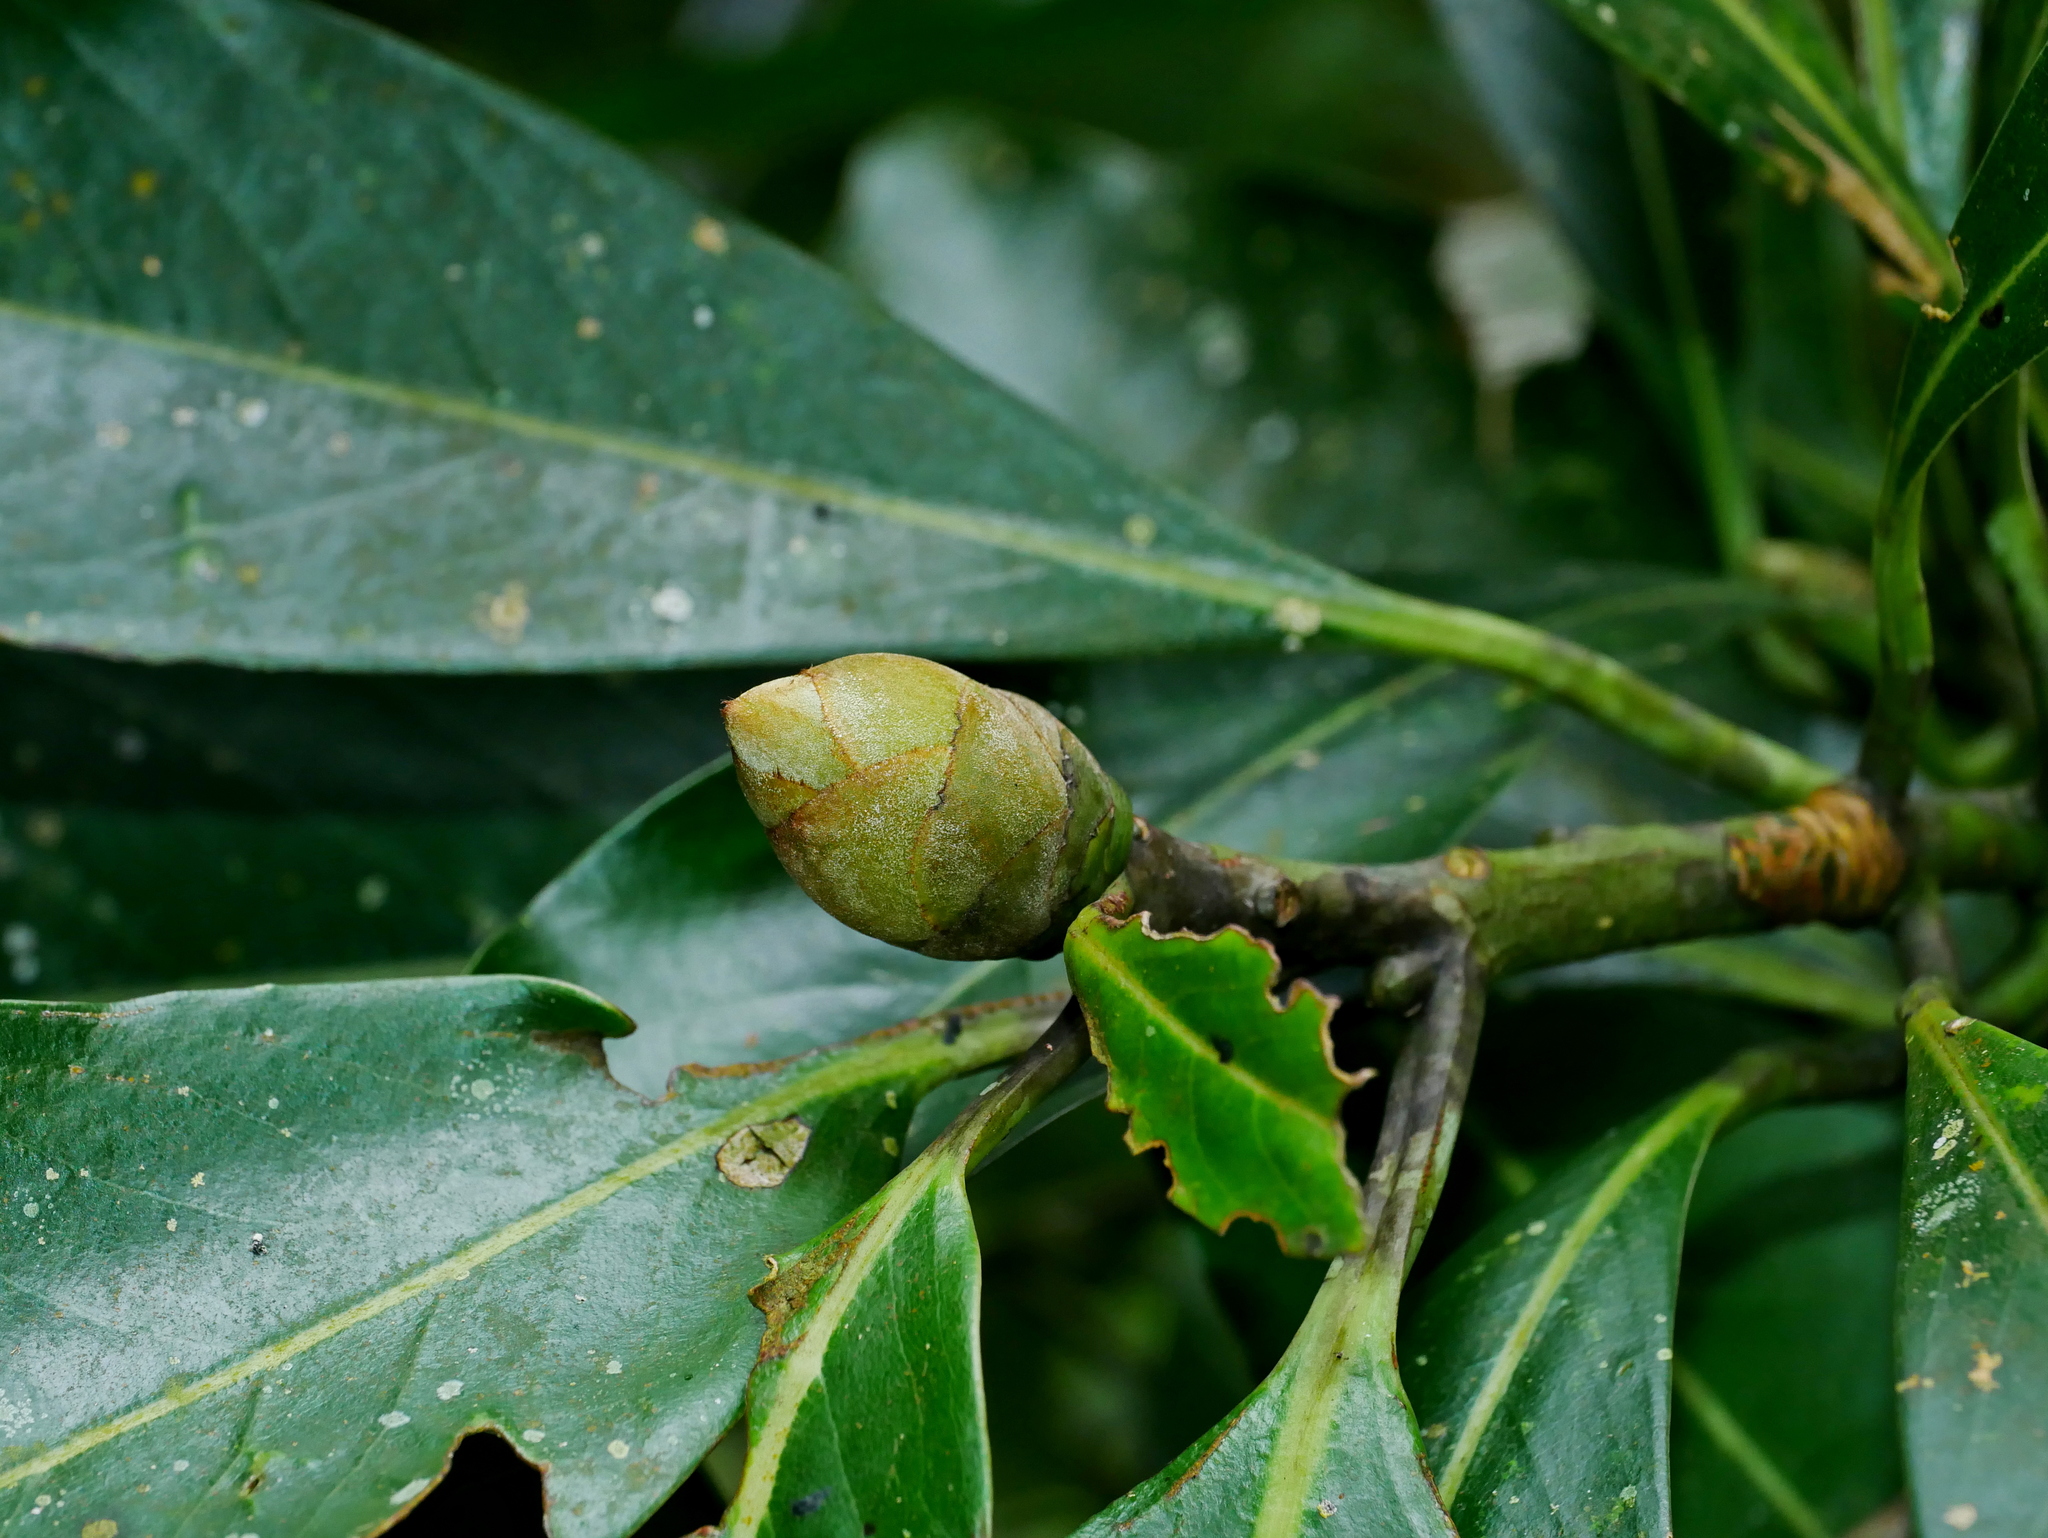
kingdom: Plantae
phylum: Tracheophyta
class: Magnoliopsida
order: Laurales
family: Lauraceae
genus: Machilus
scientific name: Machilus japonica
